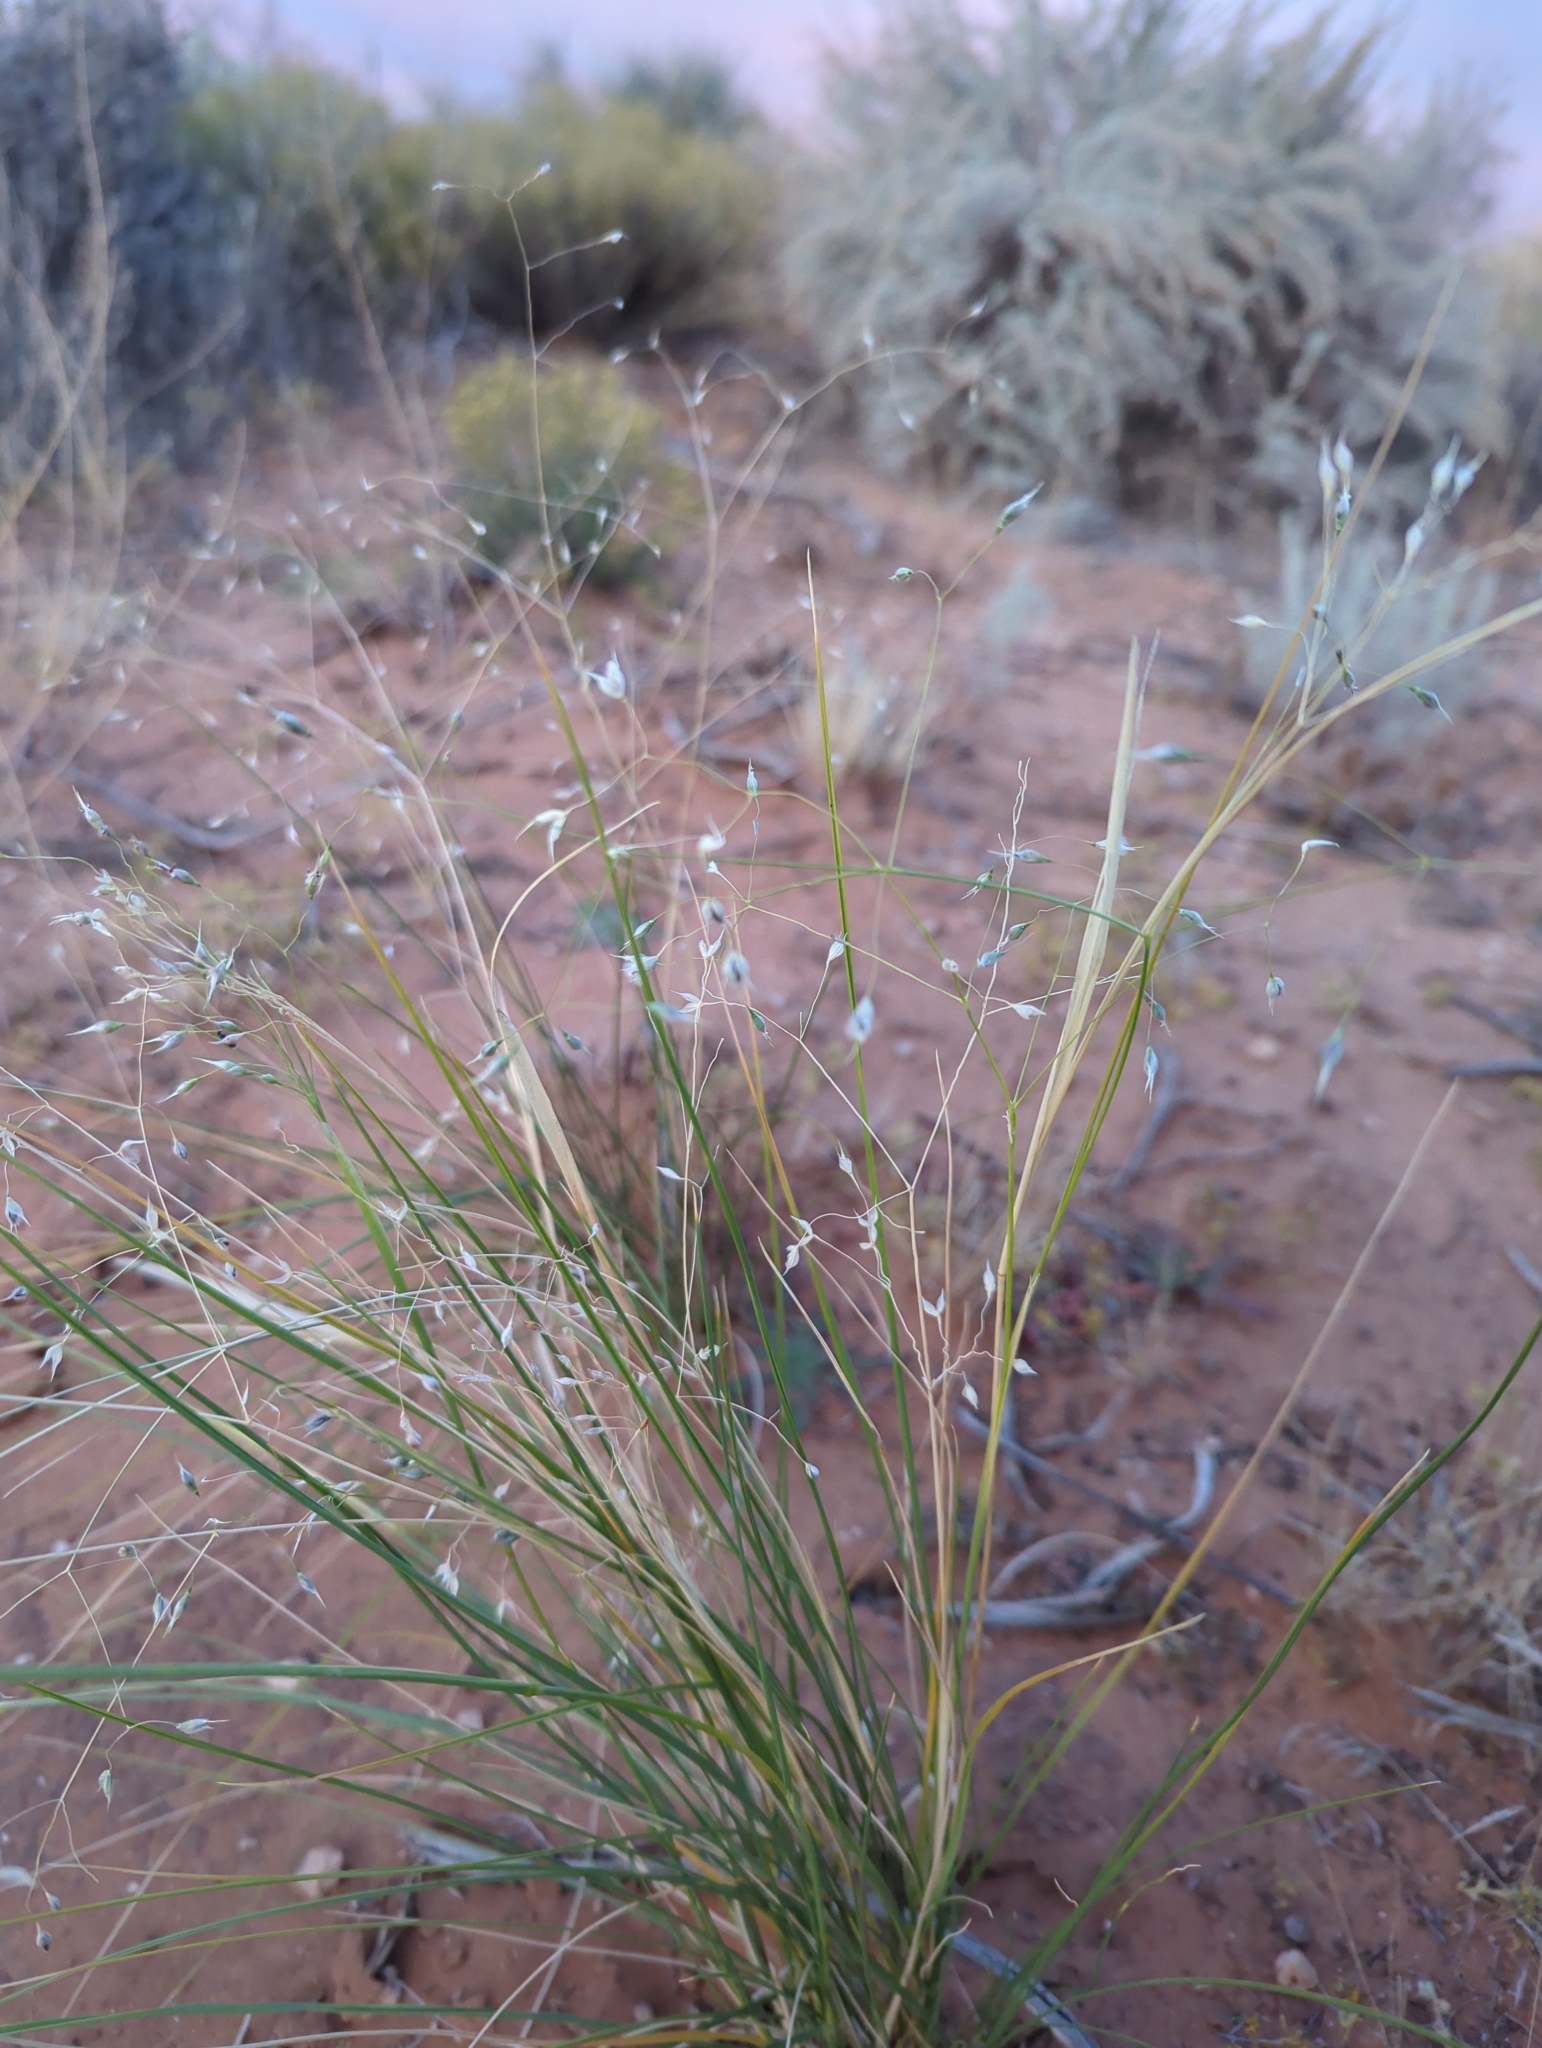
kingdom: Plantae
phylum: Tracheophyta
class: Liliopsida
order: Poales
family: Poaceae
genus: Eriocoma
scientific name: Eriocoma hymenoides
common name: Indian mountain ricegrass
